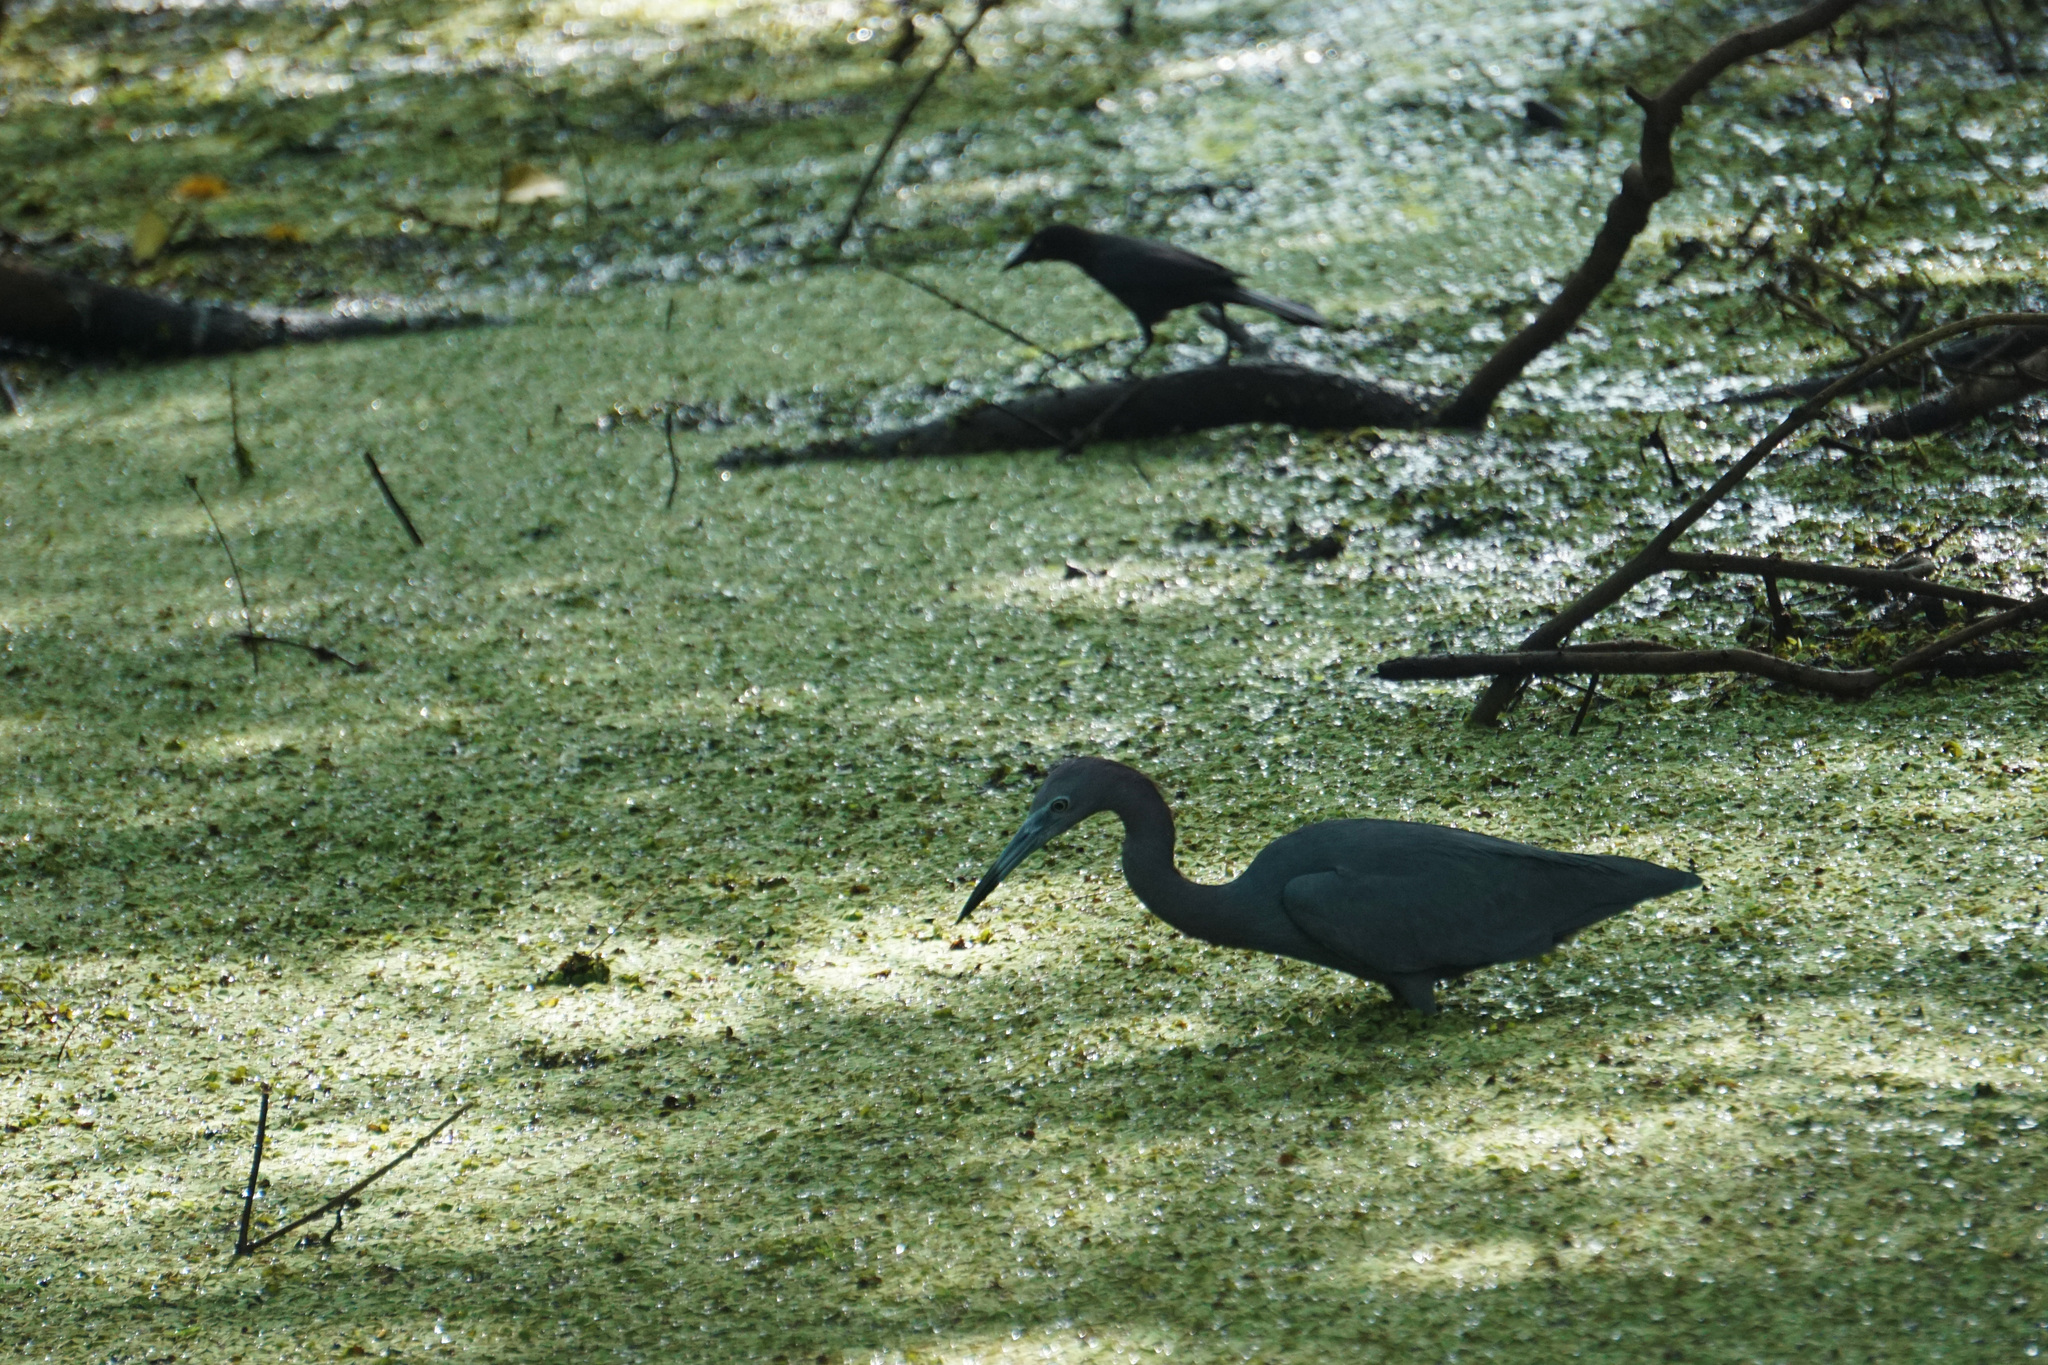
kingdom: Animalia
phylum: Chordata
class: Aves
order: Pelecaniformes
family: Ardeidae
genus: Egretta
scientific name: Egretta caerulea
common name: Little blue heron
